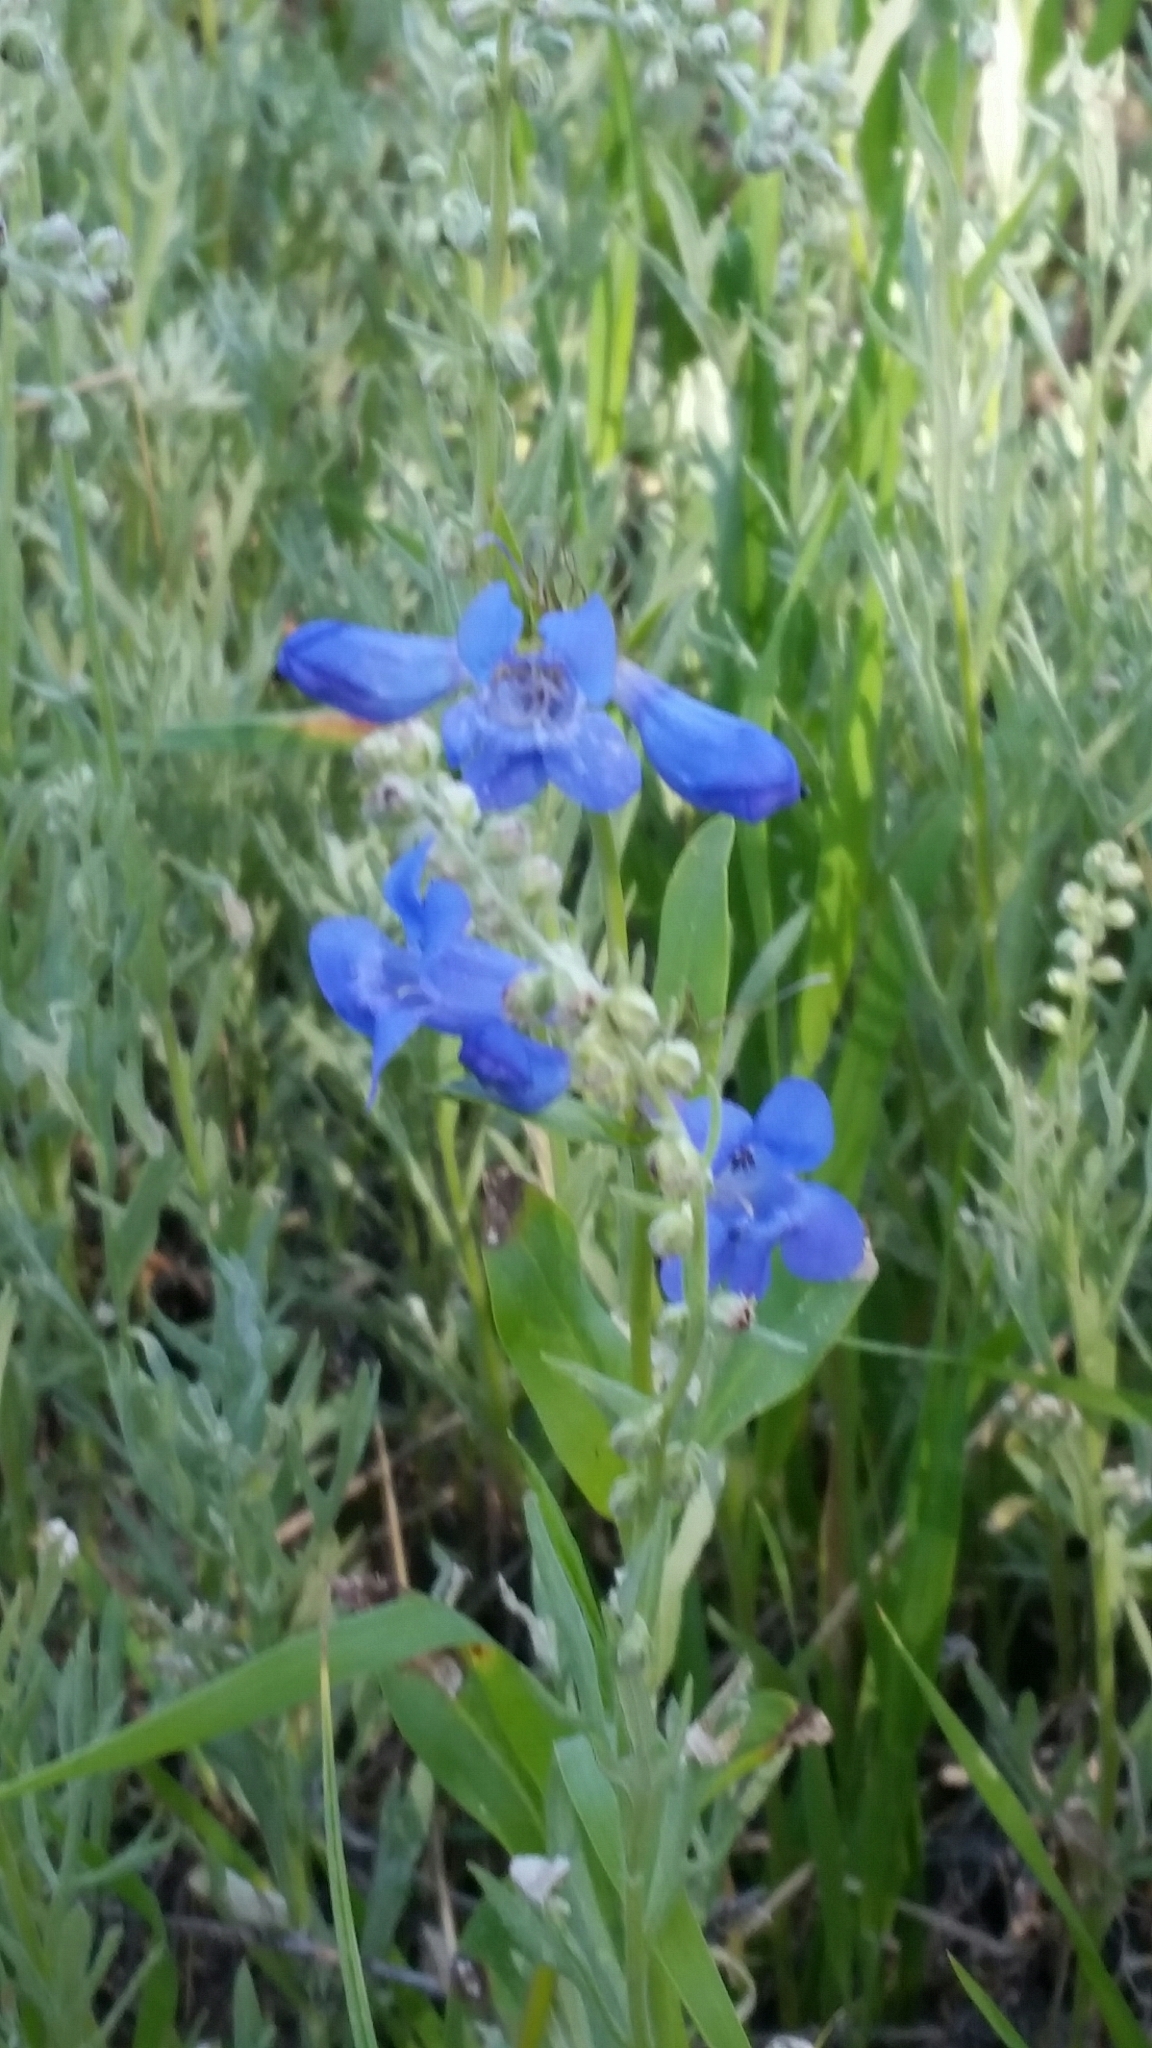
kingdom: Plantae
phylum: Tracheophyta
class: Magnoliopsida
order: Lamiales
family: Plantaginaceae
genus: Penstemon
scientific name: Penstemon cyananthus
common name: Wasatch penstemon
